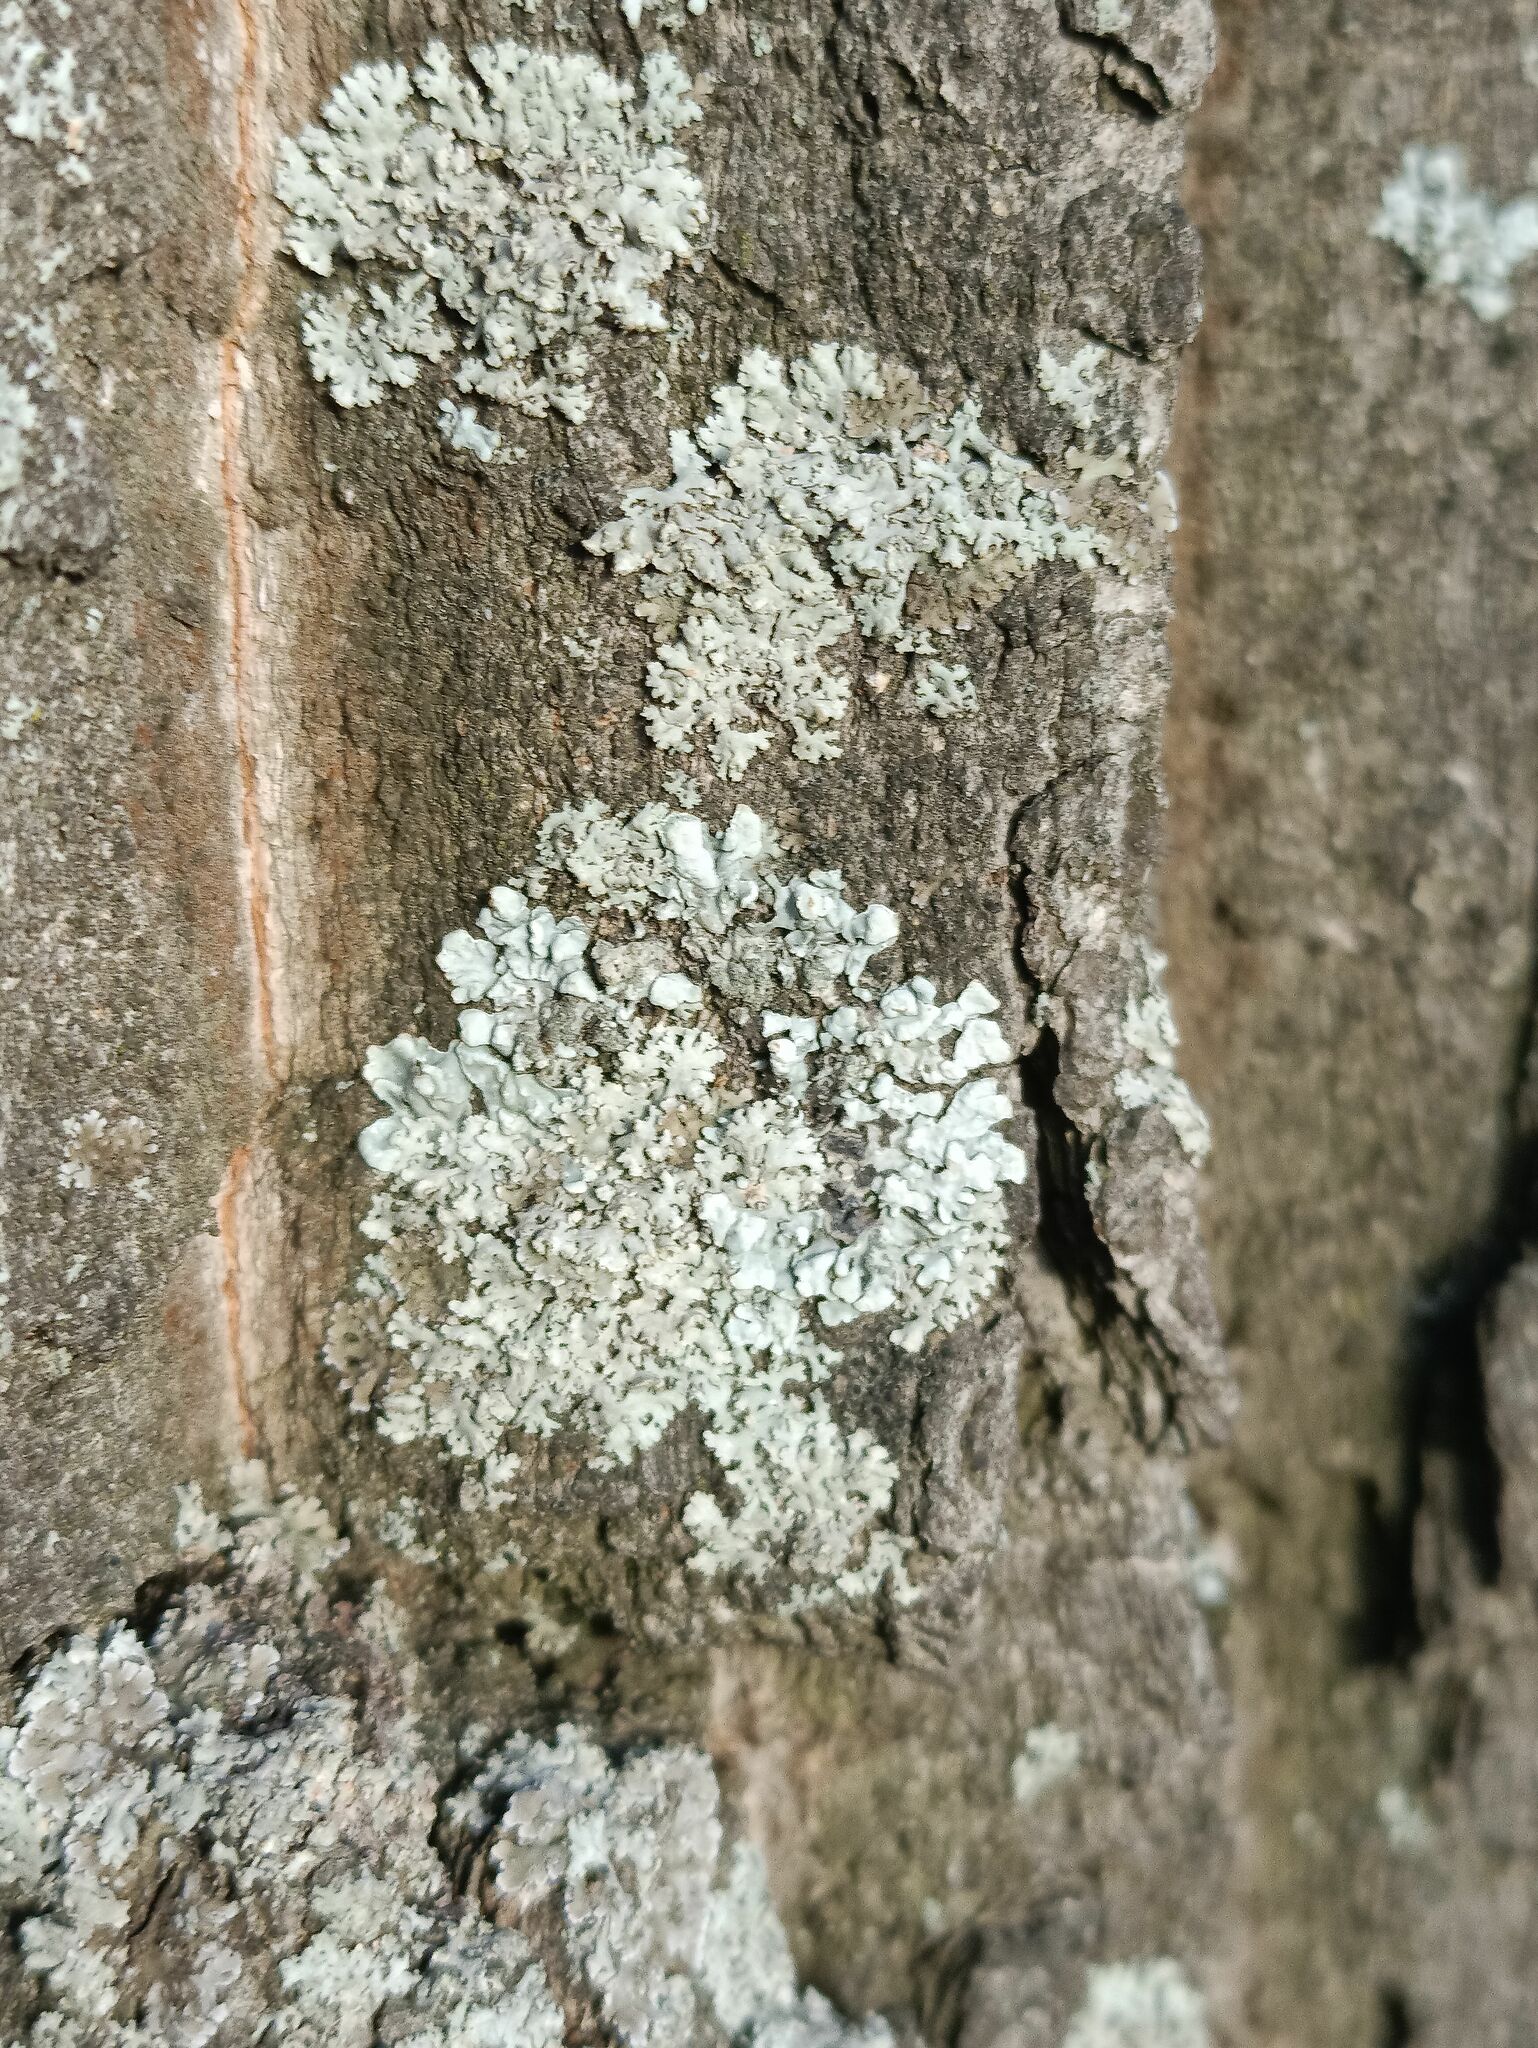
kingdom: Fungi
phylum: Ascomycota
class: Lecanoromycetes
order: Lecanorales
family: Parmeliaceae
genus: Parmelia
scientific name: Parmelia sulcata
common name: Netted shield lichen
